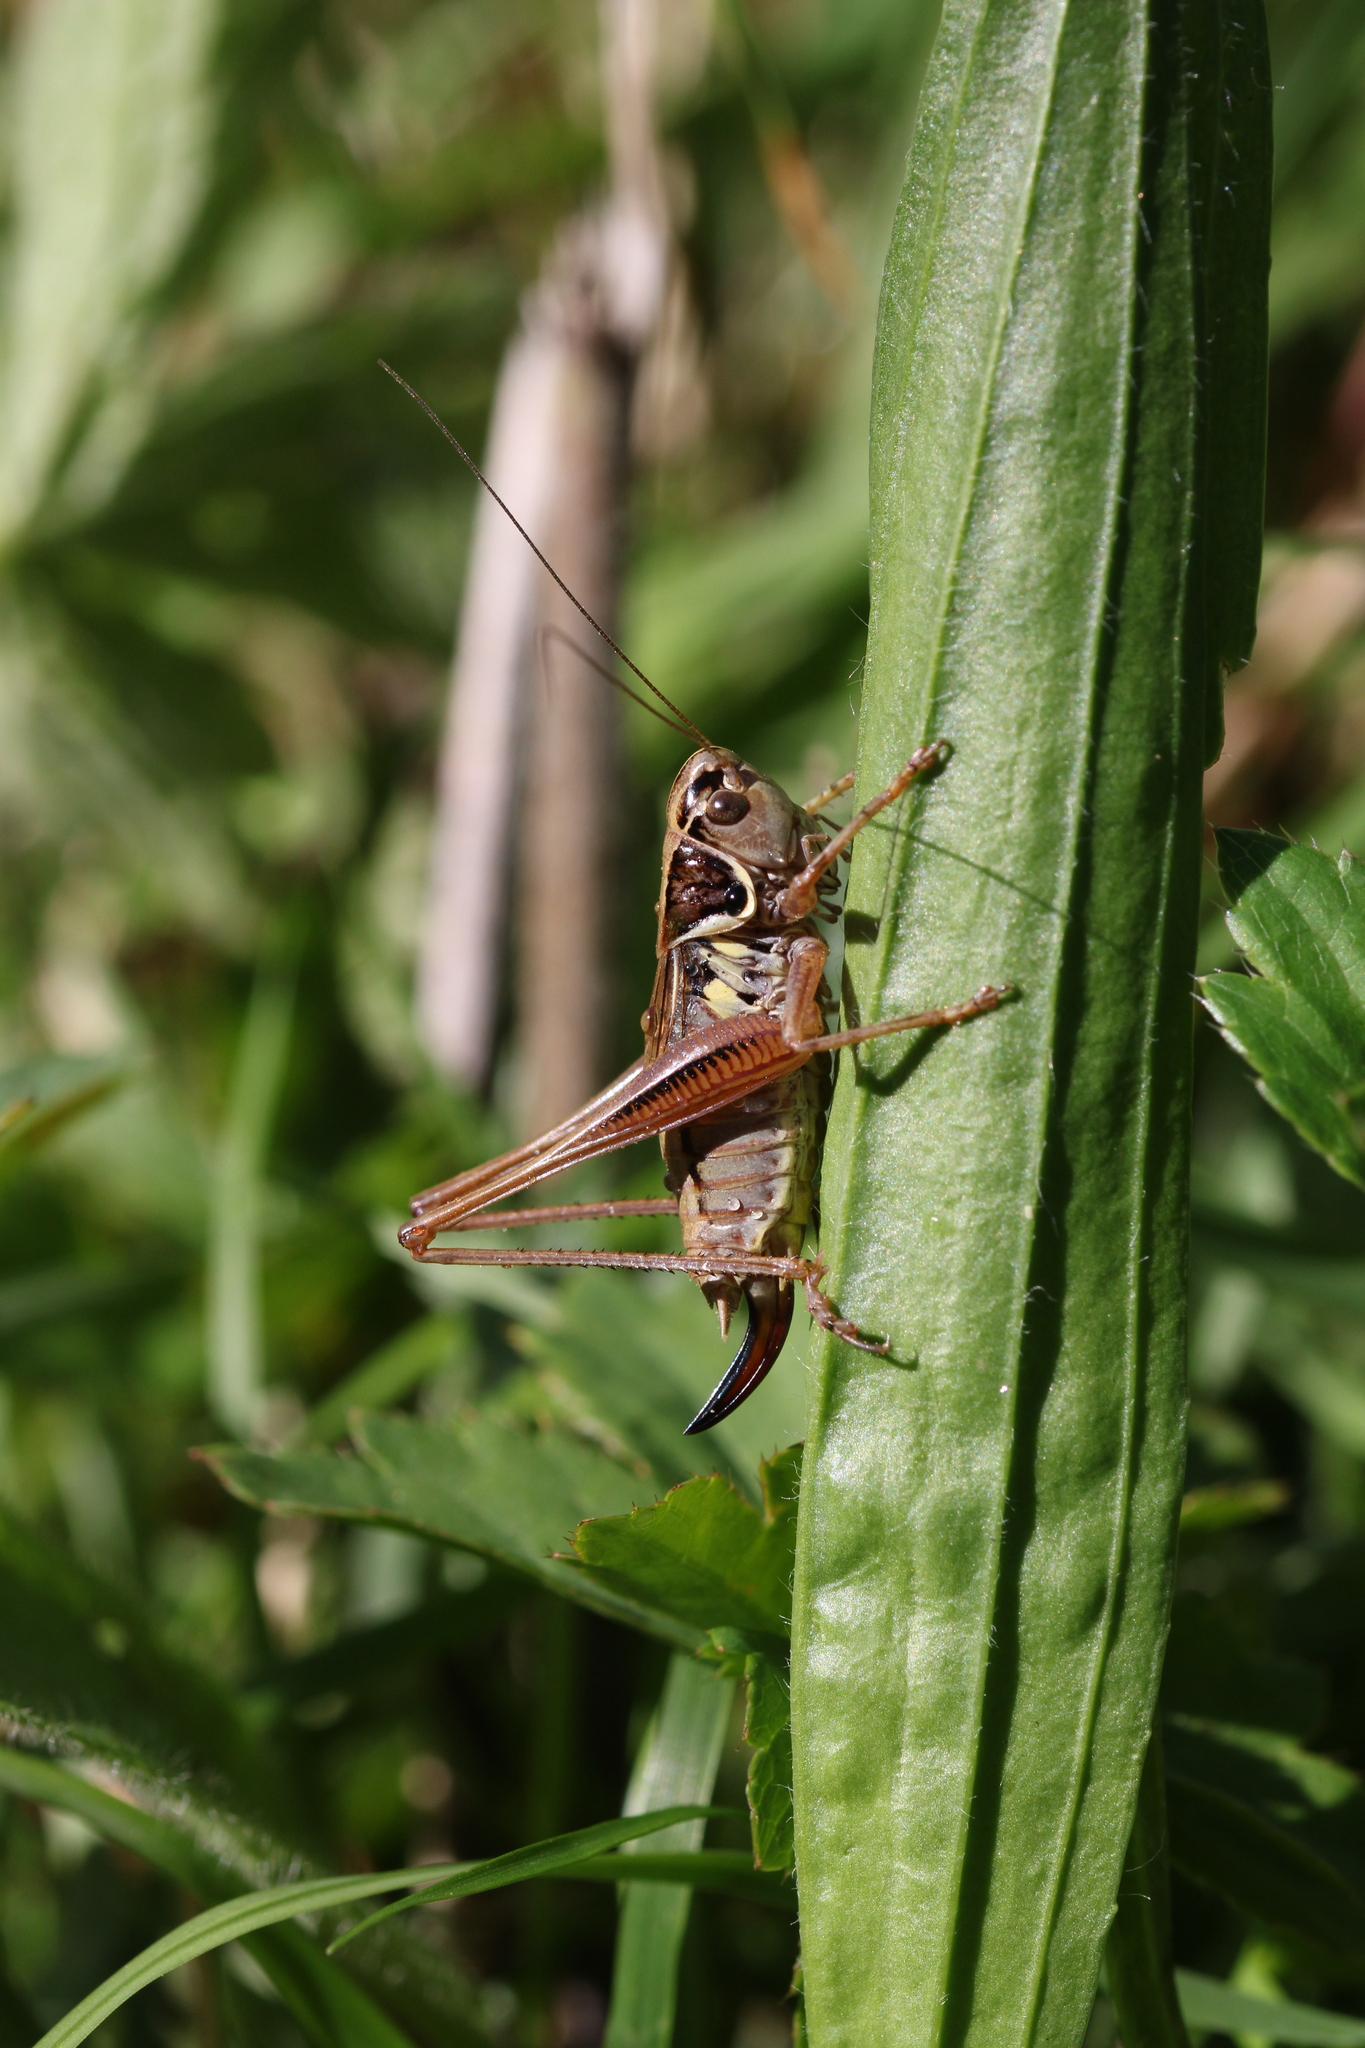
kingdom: Animalia
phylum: Arthropoda
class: Insecta
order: Orthoptera
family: Tettigoniidae
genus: Roeseliana
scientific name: Roeseliana roeselii
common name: Roesel's bush cricket
